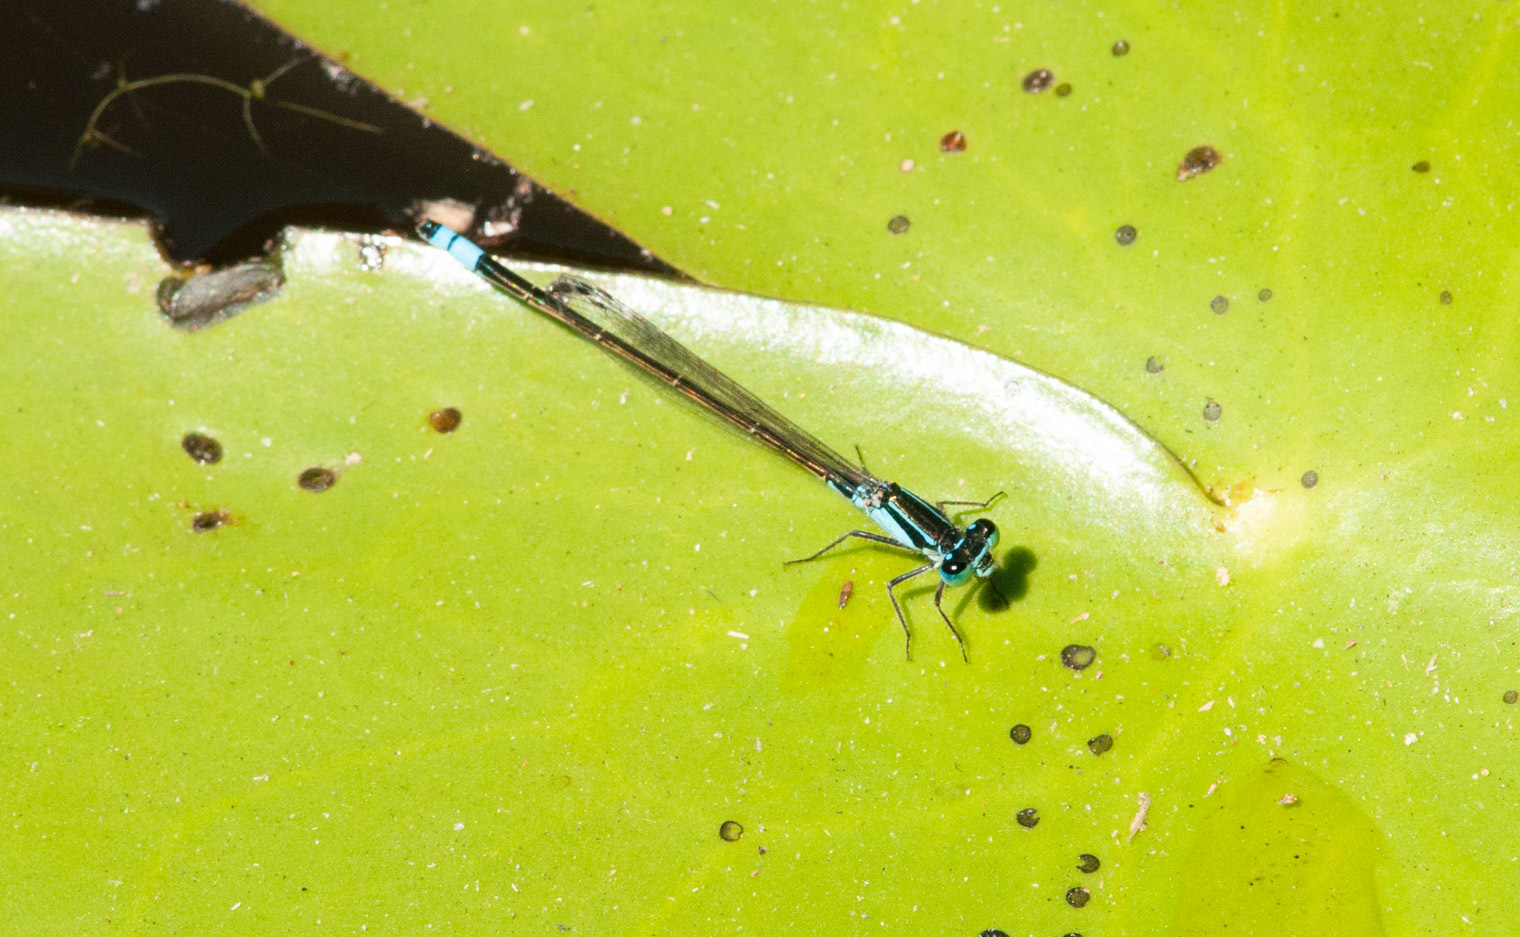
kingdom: Animalia
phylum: Arthropoda
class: Insecta
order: Odonata
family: Coenagrionidae
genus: Ischnura
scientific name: Ischnura heterosticta
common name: Common bluetail
